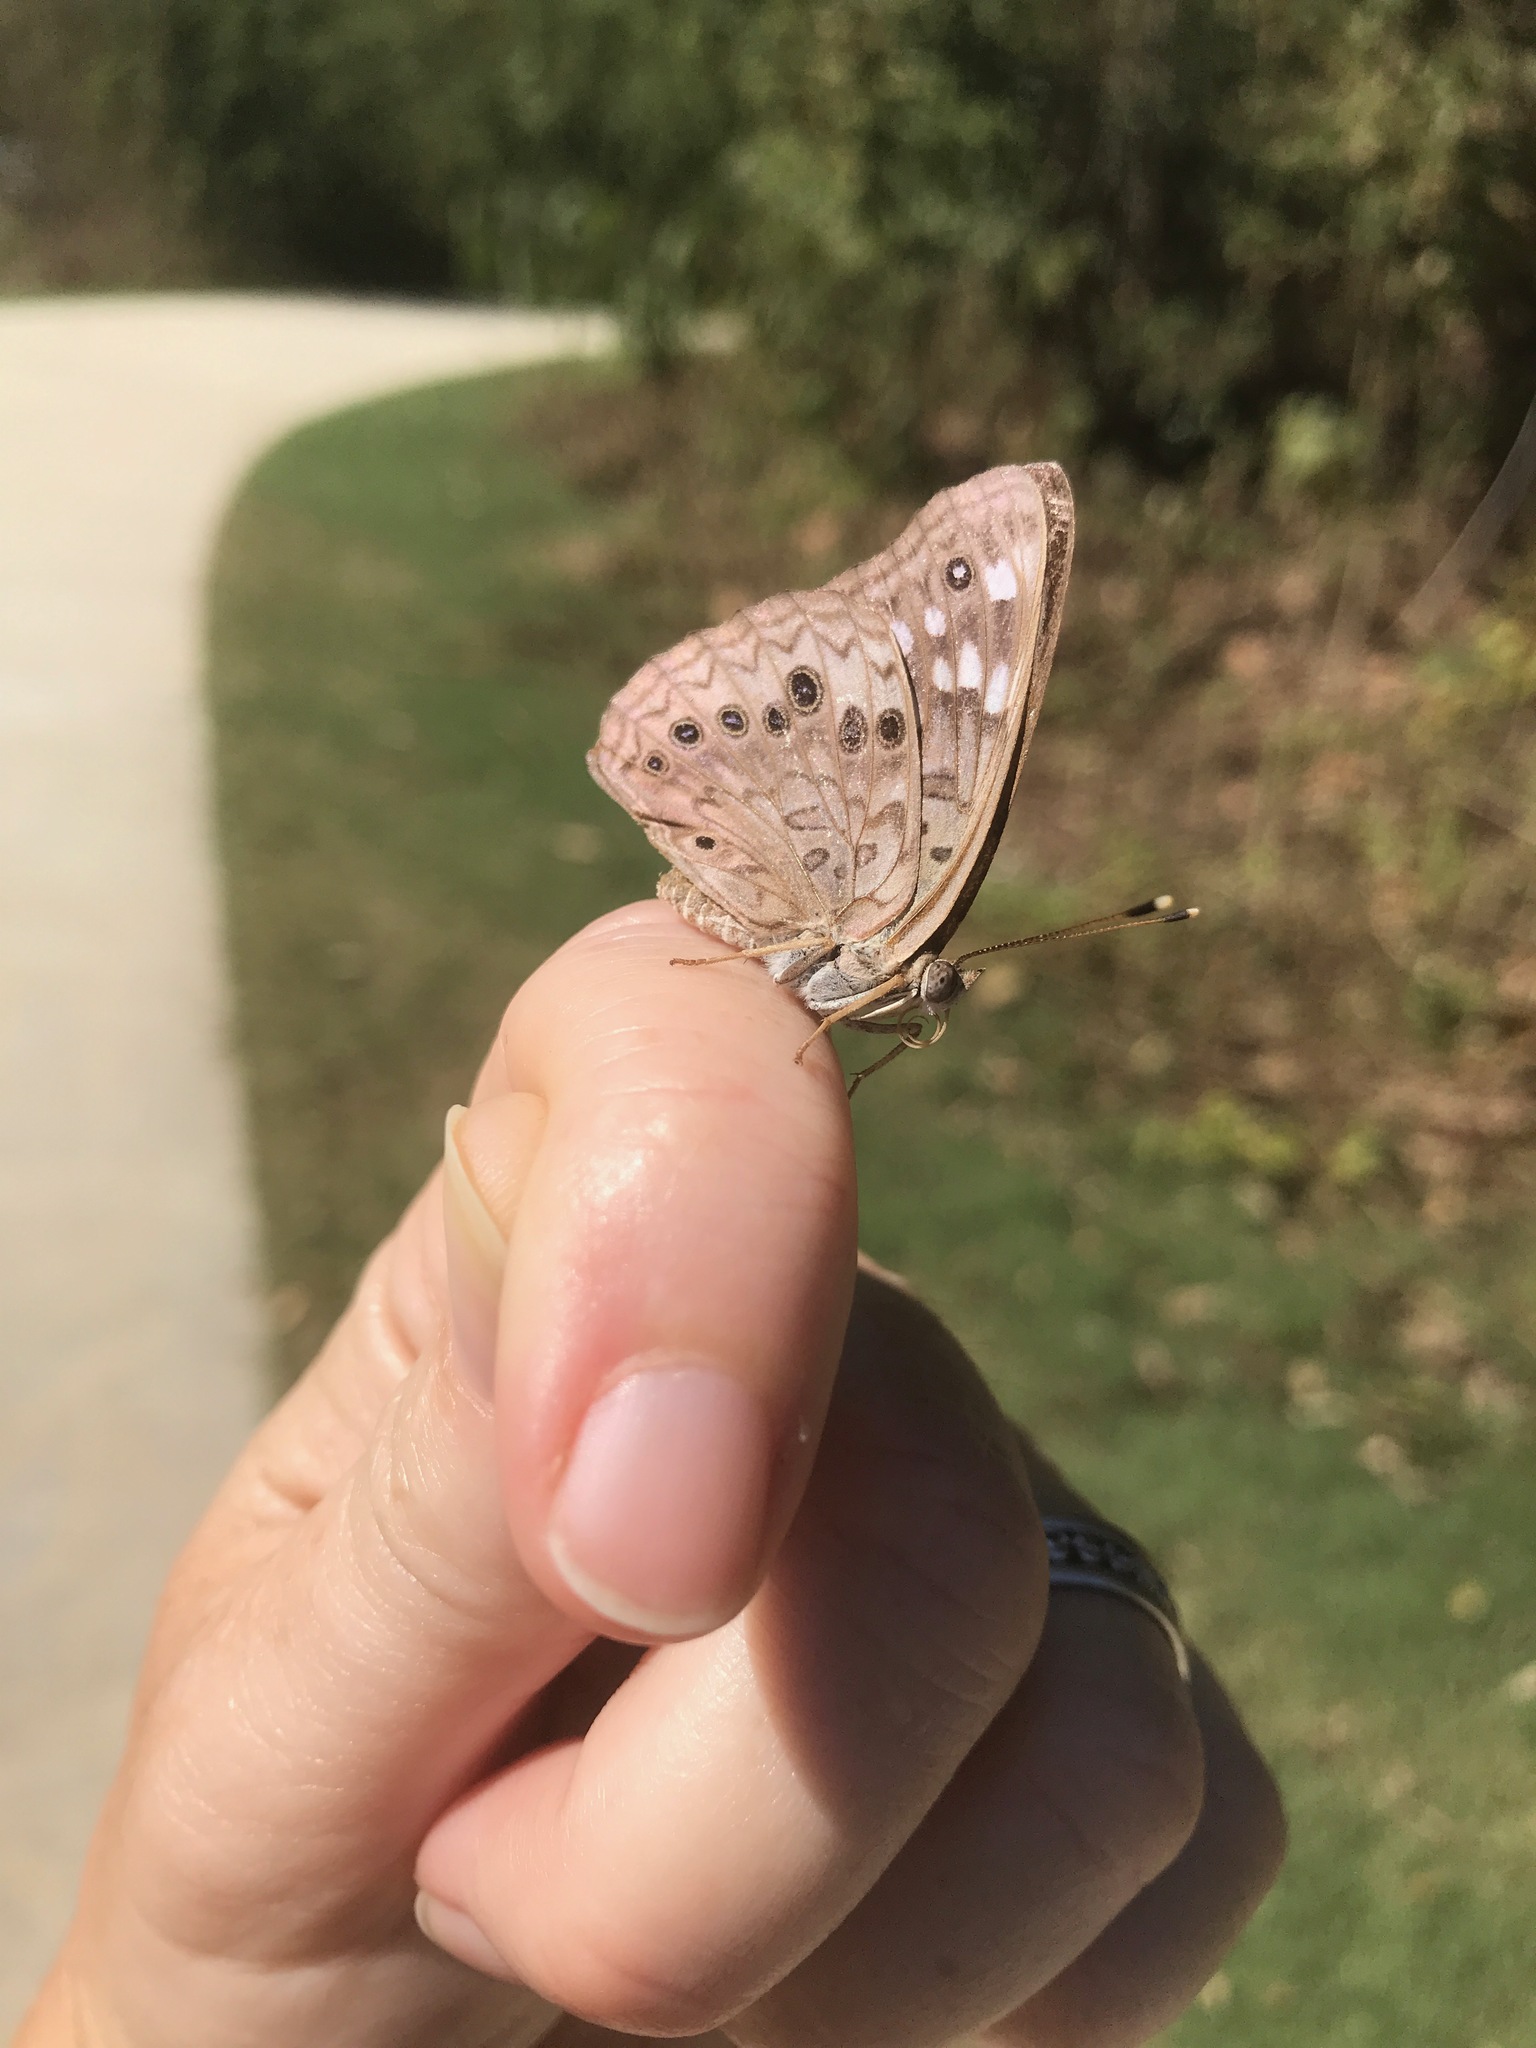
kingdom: Animalia
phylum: Arthropoda
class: Insecta
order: Lepidoptera
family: Nymphalidae
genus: Asterocampa
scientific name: Asterocampa celtis
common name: Hackberry emperor
